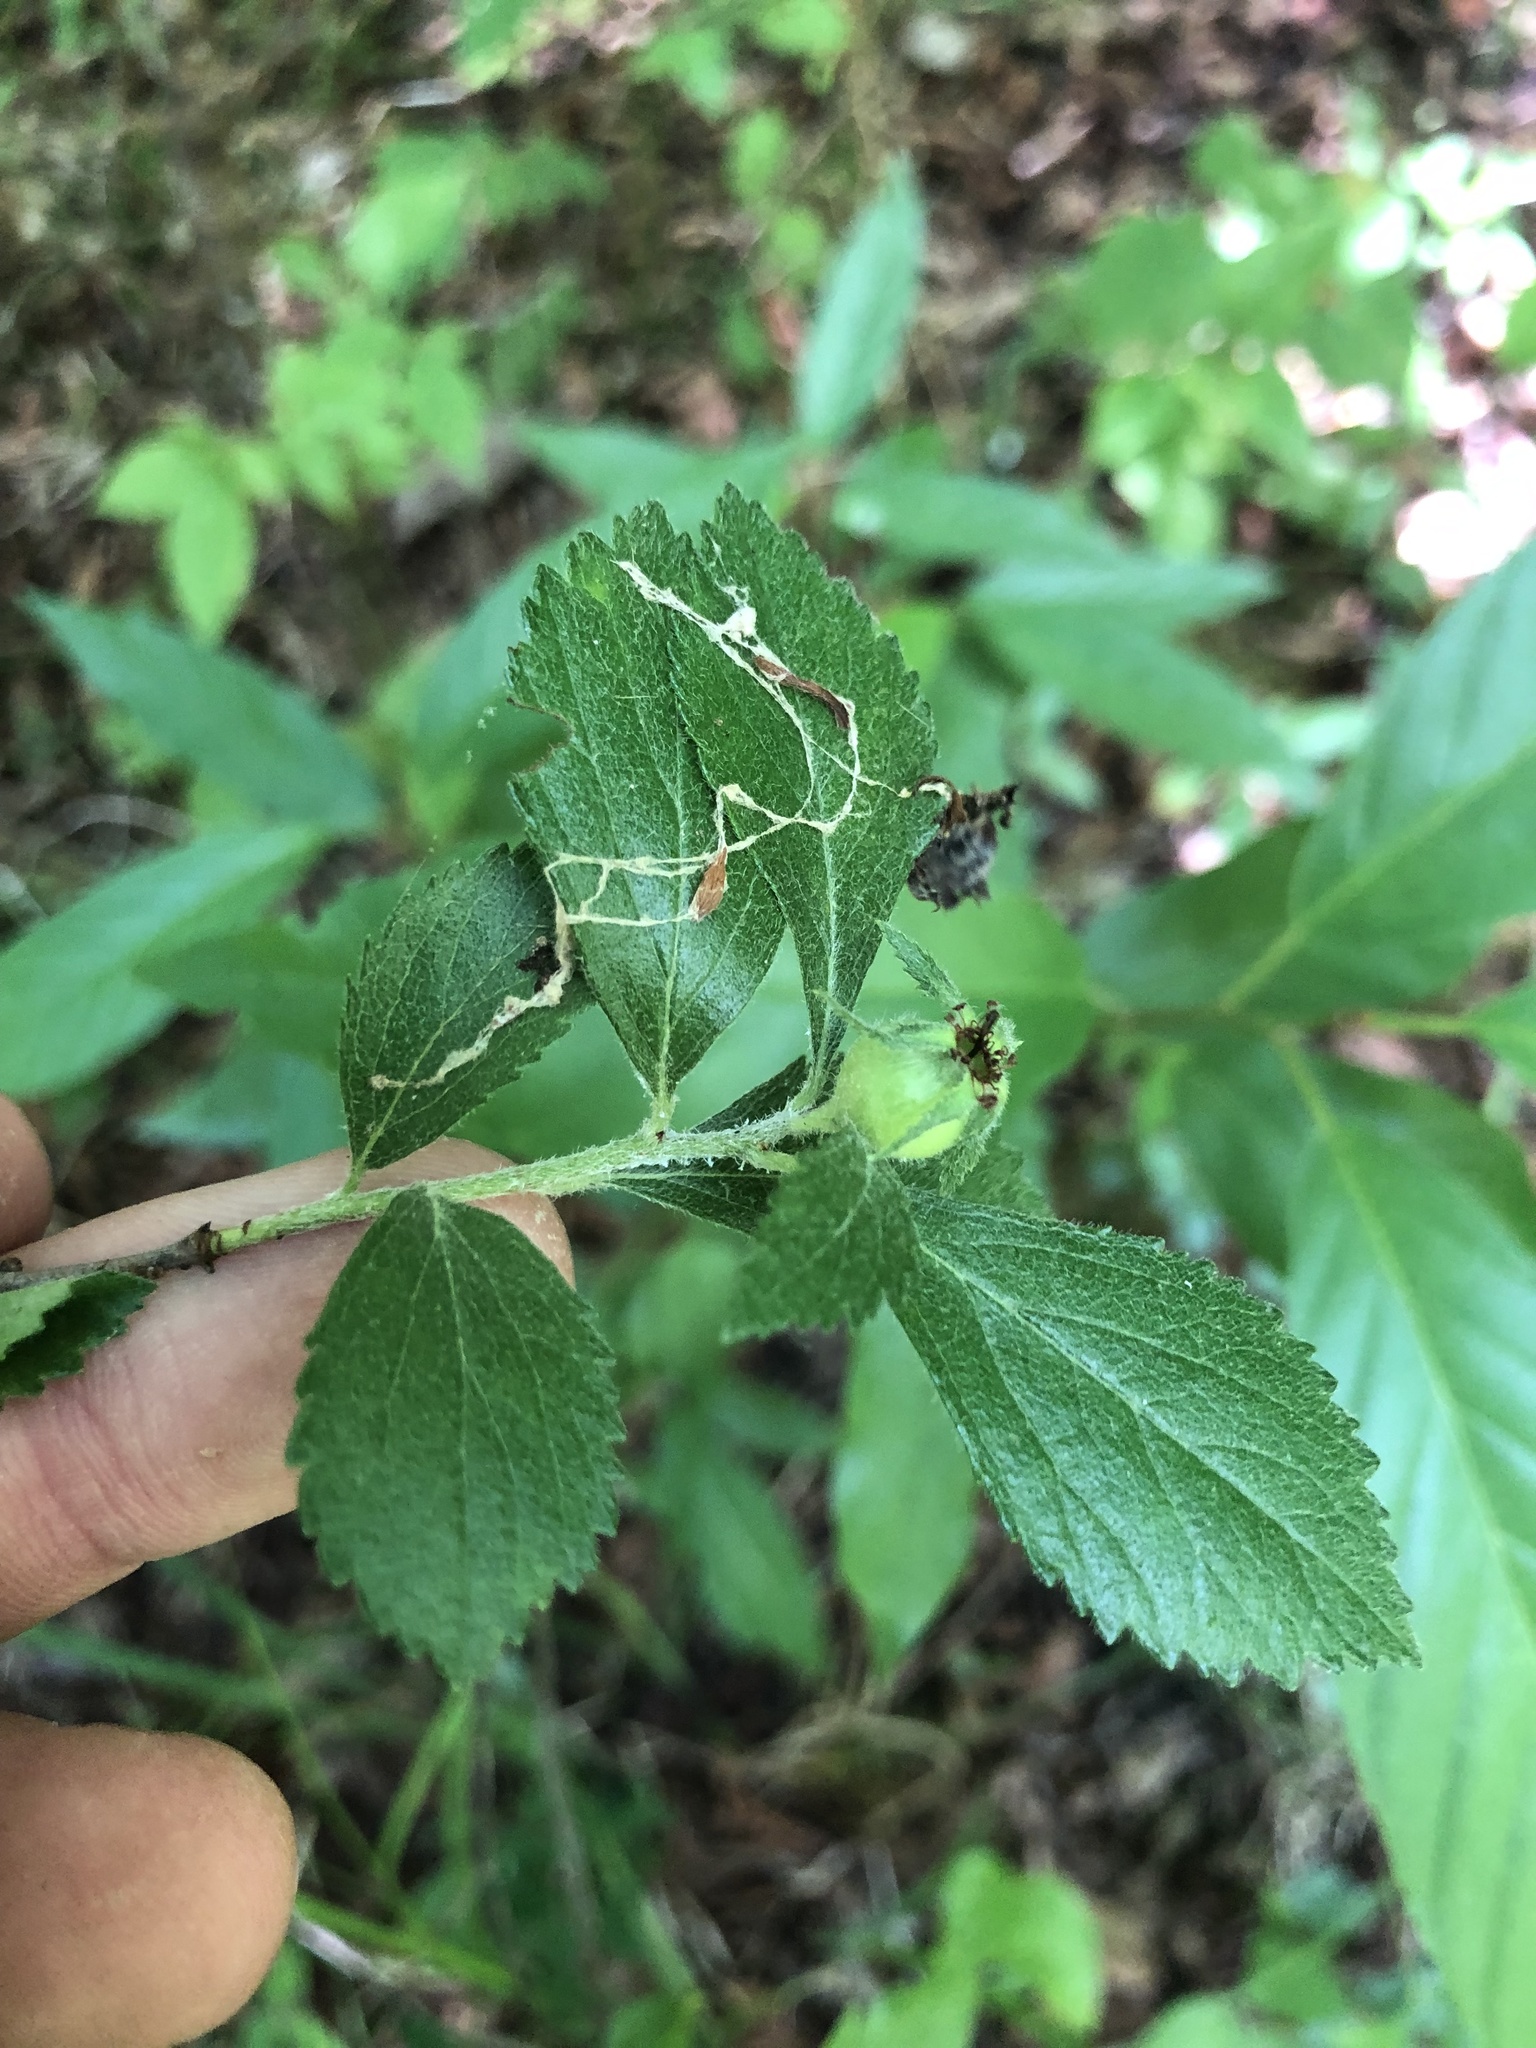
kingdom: Plantae
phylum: Tracheophyta
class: Magnoliopsida
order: Rosales
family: Rosaceae
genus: Crataegus
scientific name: Crataegus uniflora
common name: One-flower hawthorn
